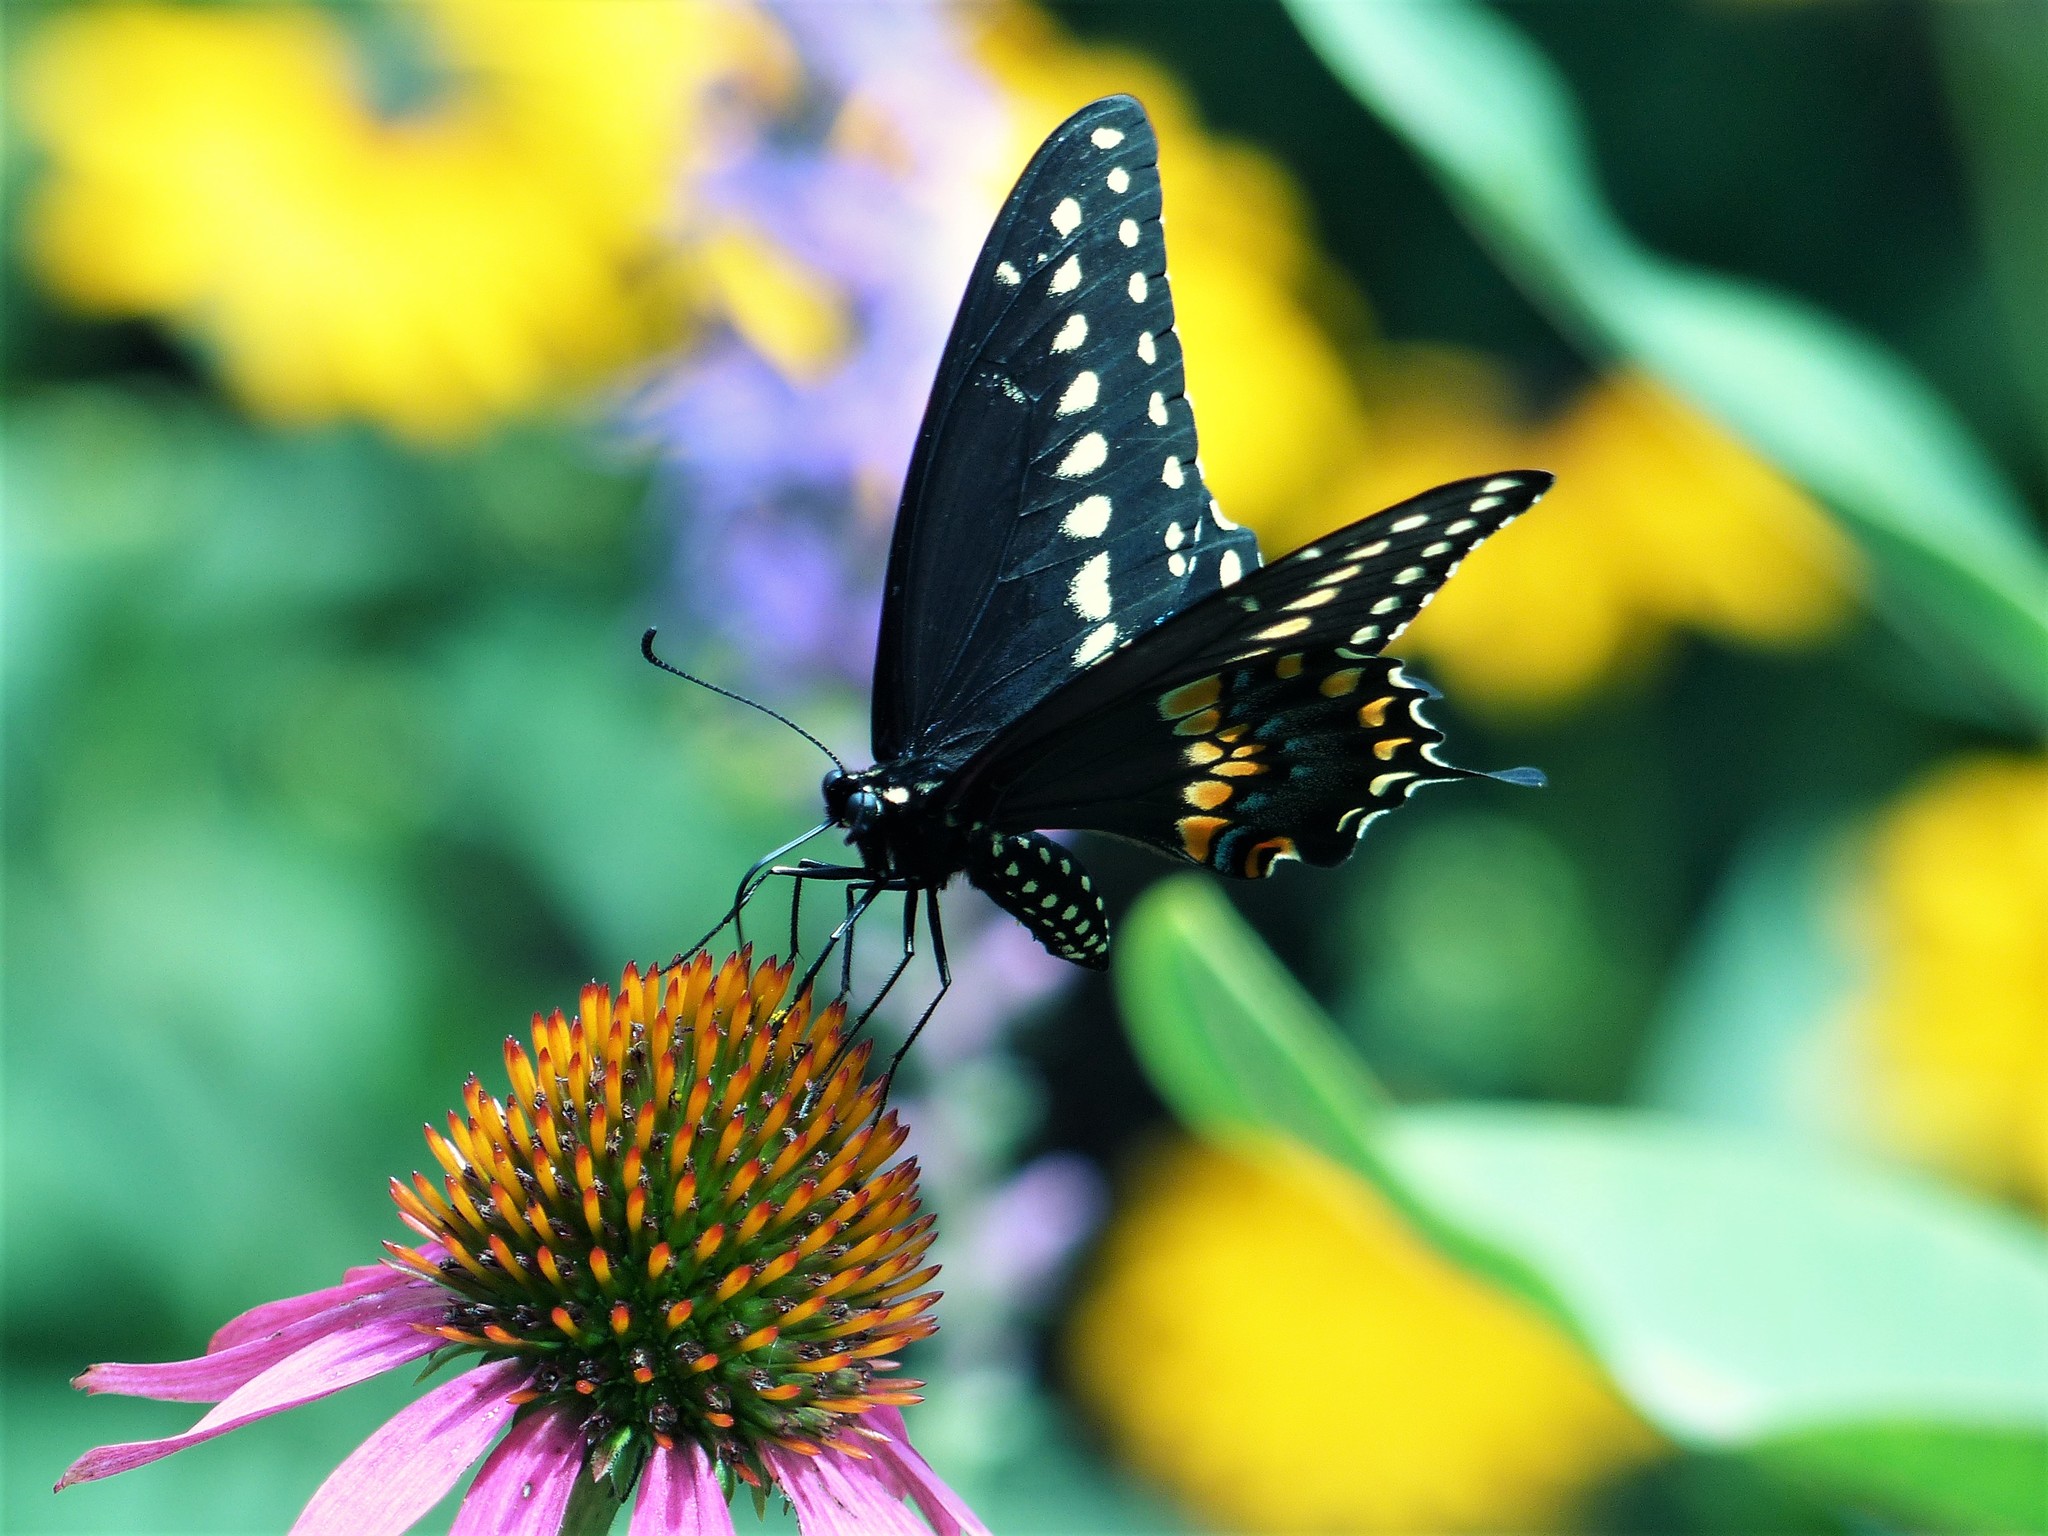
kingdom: Animalia
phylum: Arthropoda
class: Insecta
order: Lepidoptera
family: Papilionidae
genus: Papilio
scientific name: Papilio polyxenes
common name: Black swallowtail
